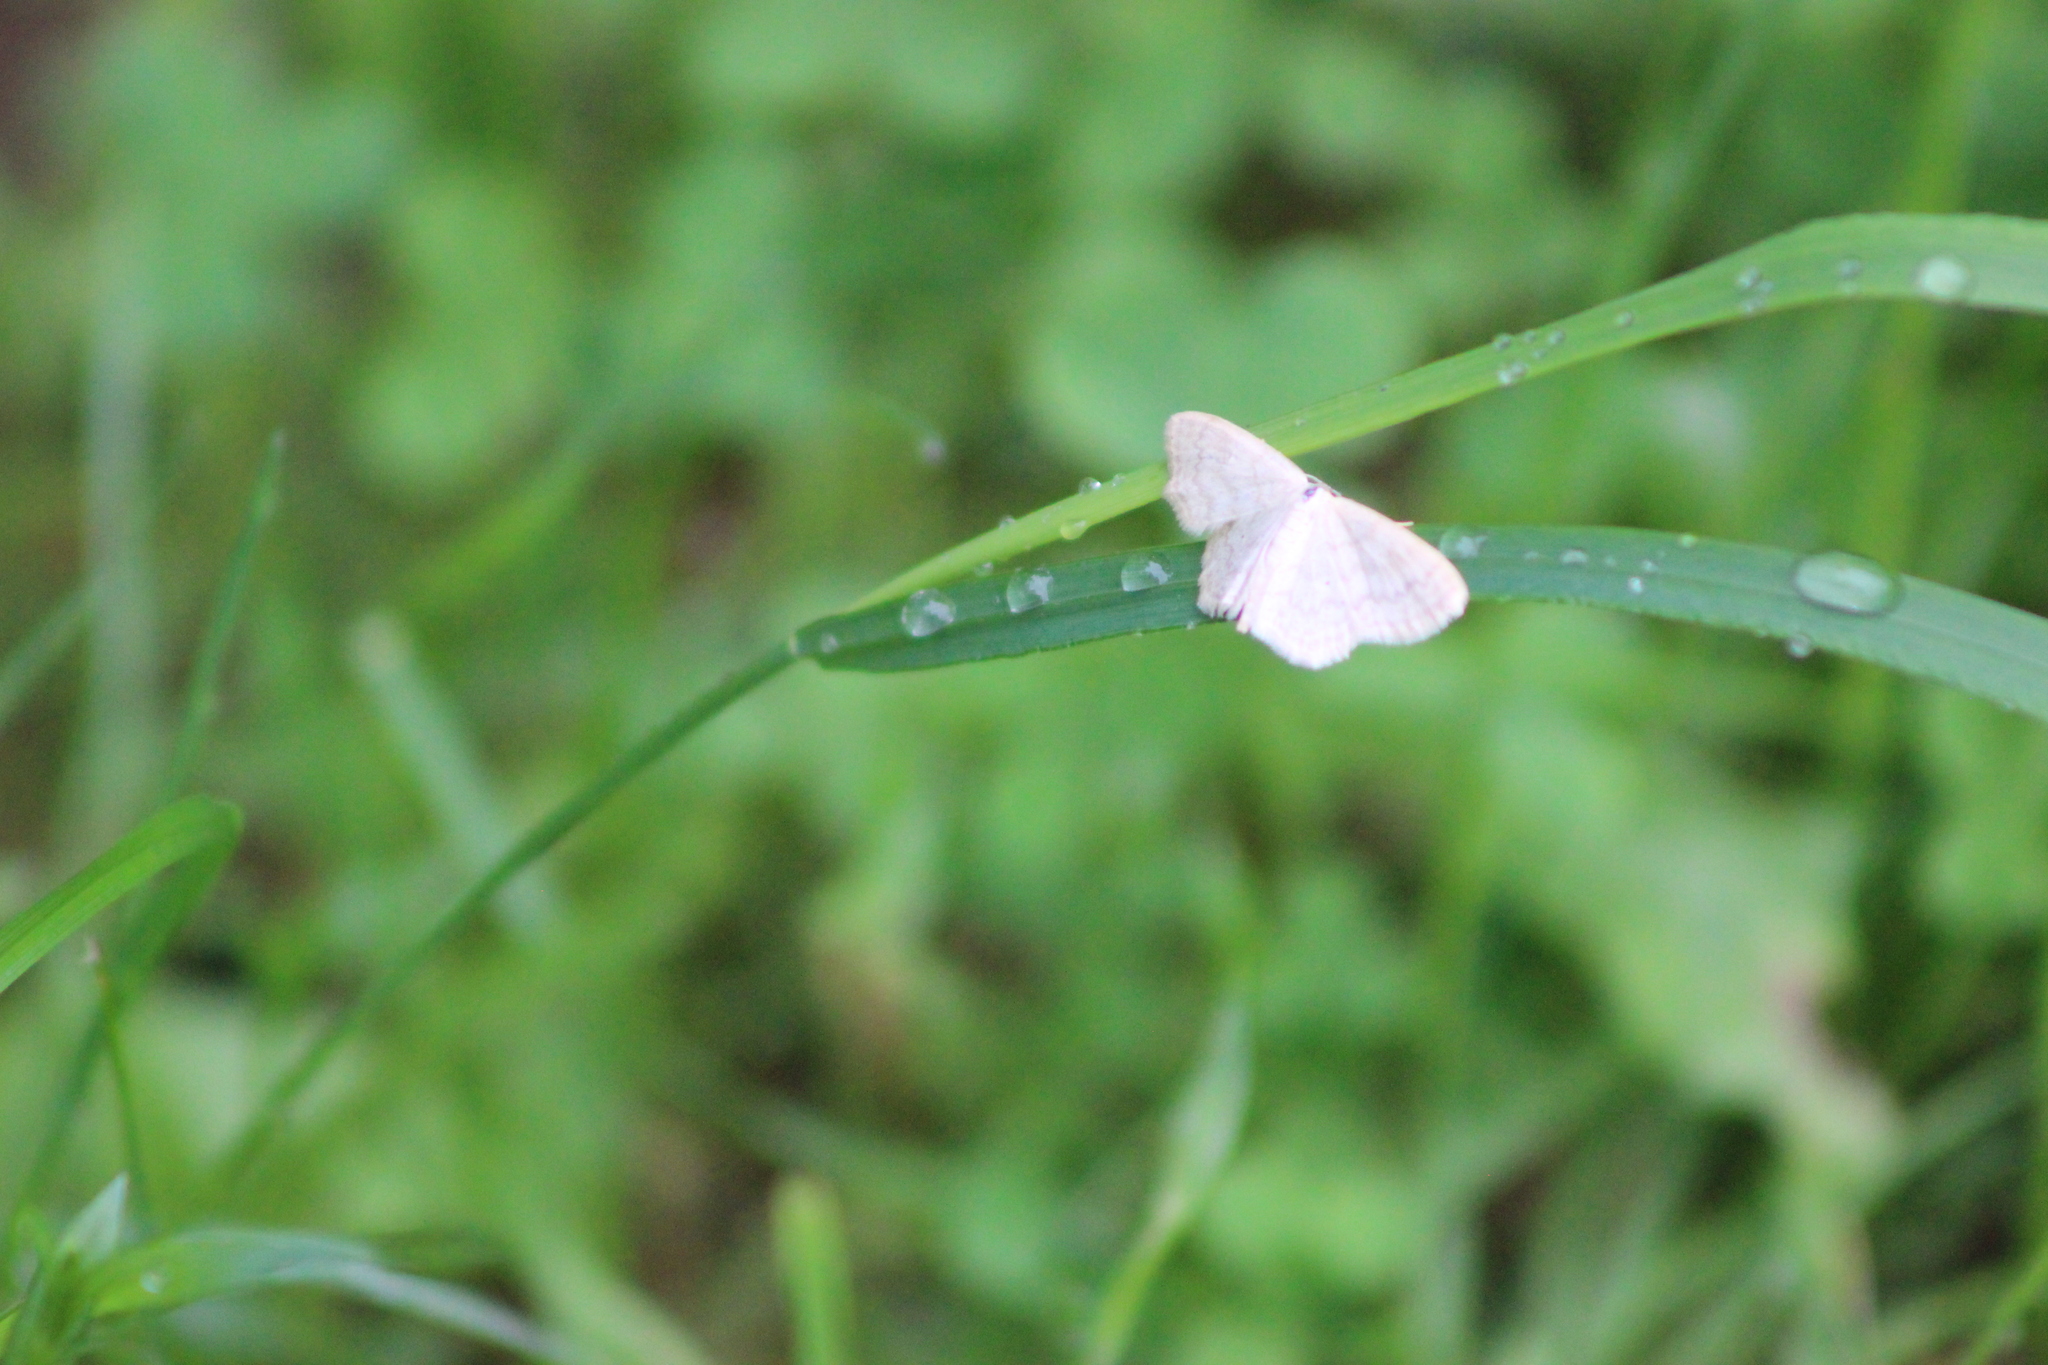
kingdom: Animalia
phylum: Arthropoda
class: Insecta
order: Lepidoptera
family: Geometridae
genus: Scopula
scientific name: Scopula floslactata
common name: Cream wave
